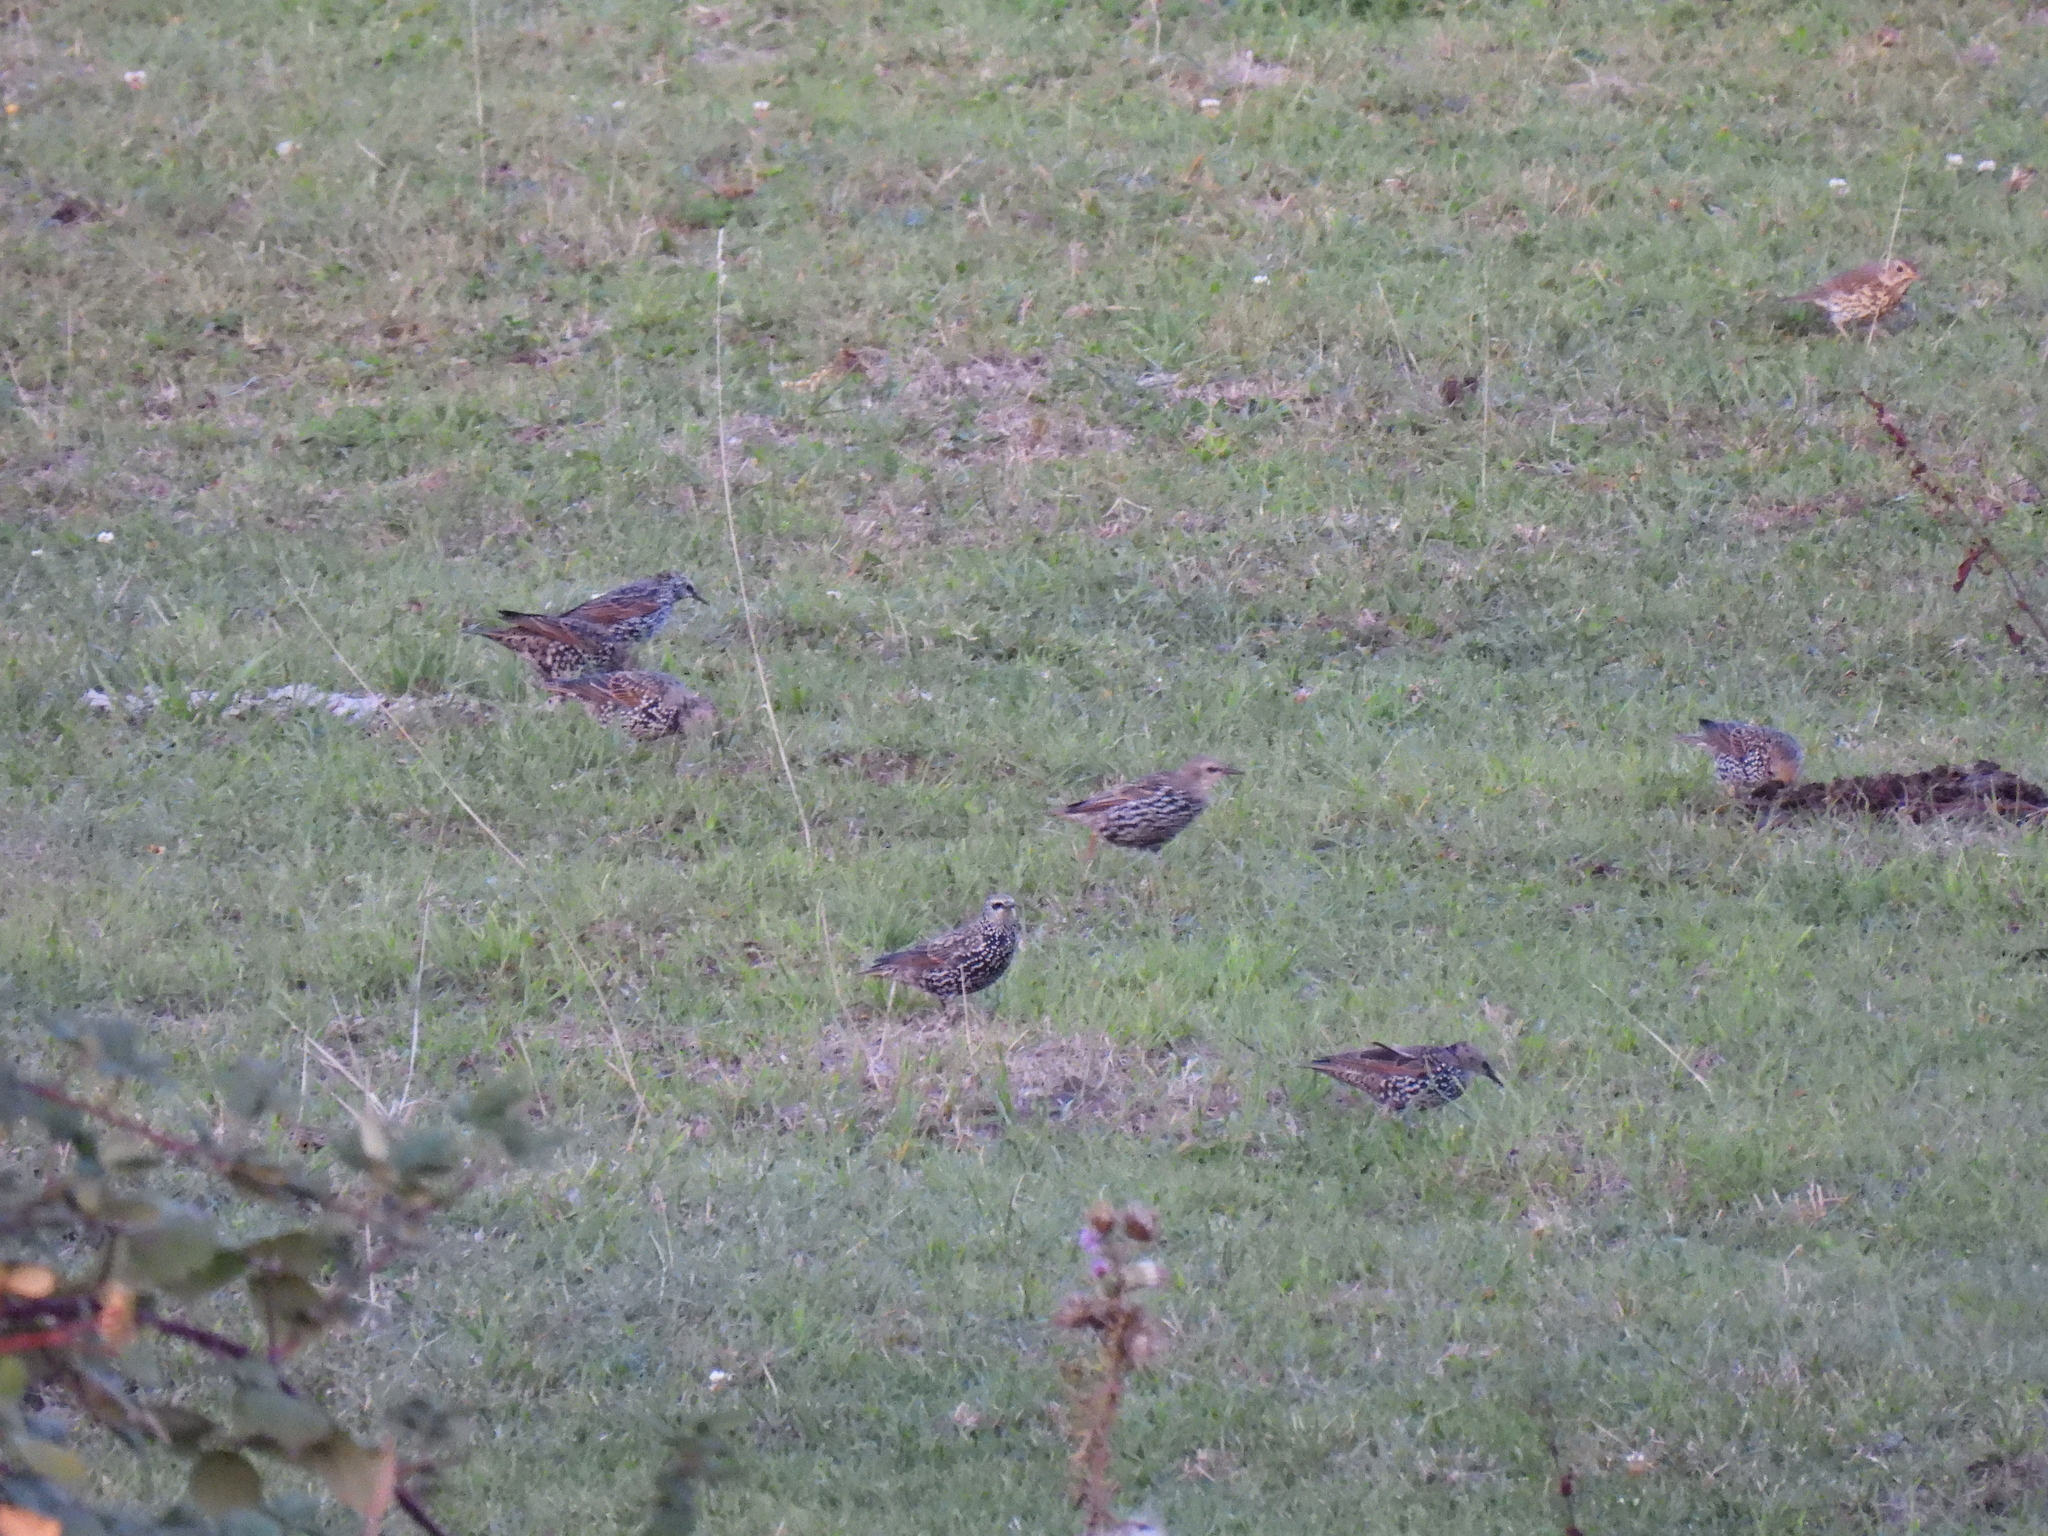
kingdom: Animalia
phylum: Chordata
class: Aves
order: Passeriformes
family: Sturnidae
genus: Sturnus
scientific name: Sturnus vulgaris
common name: Common starling
